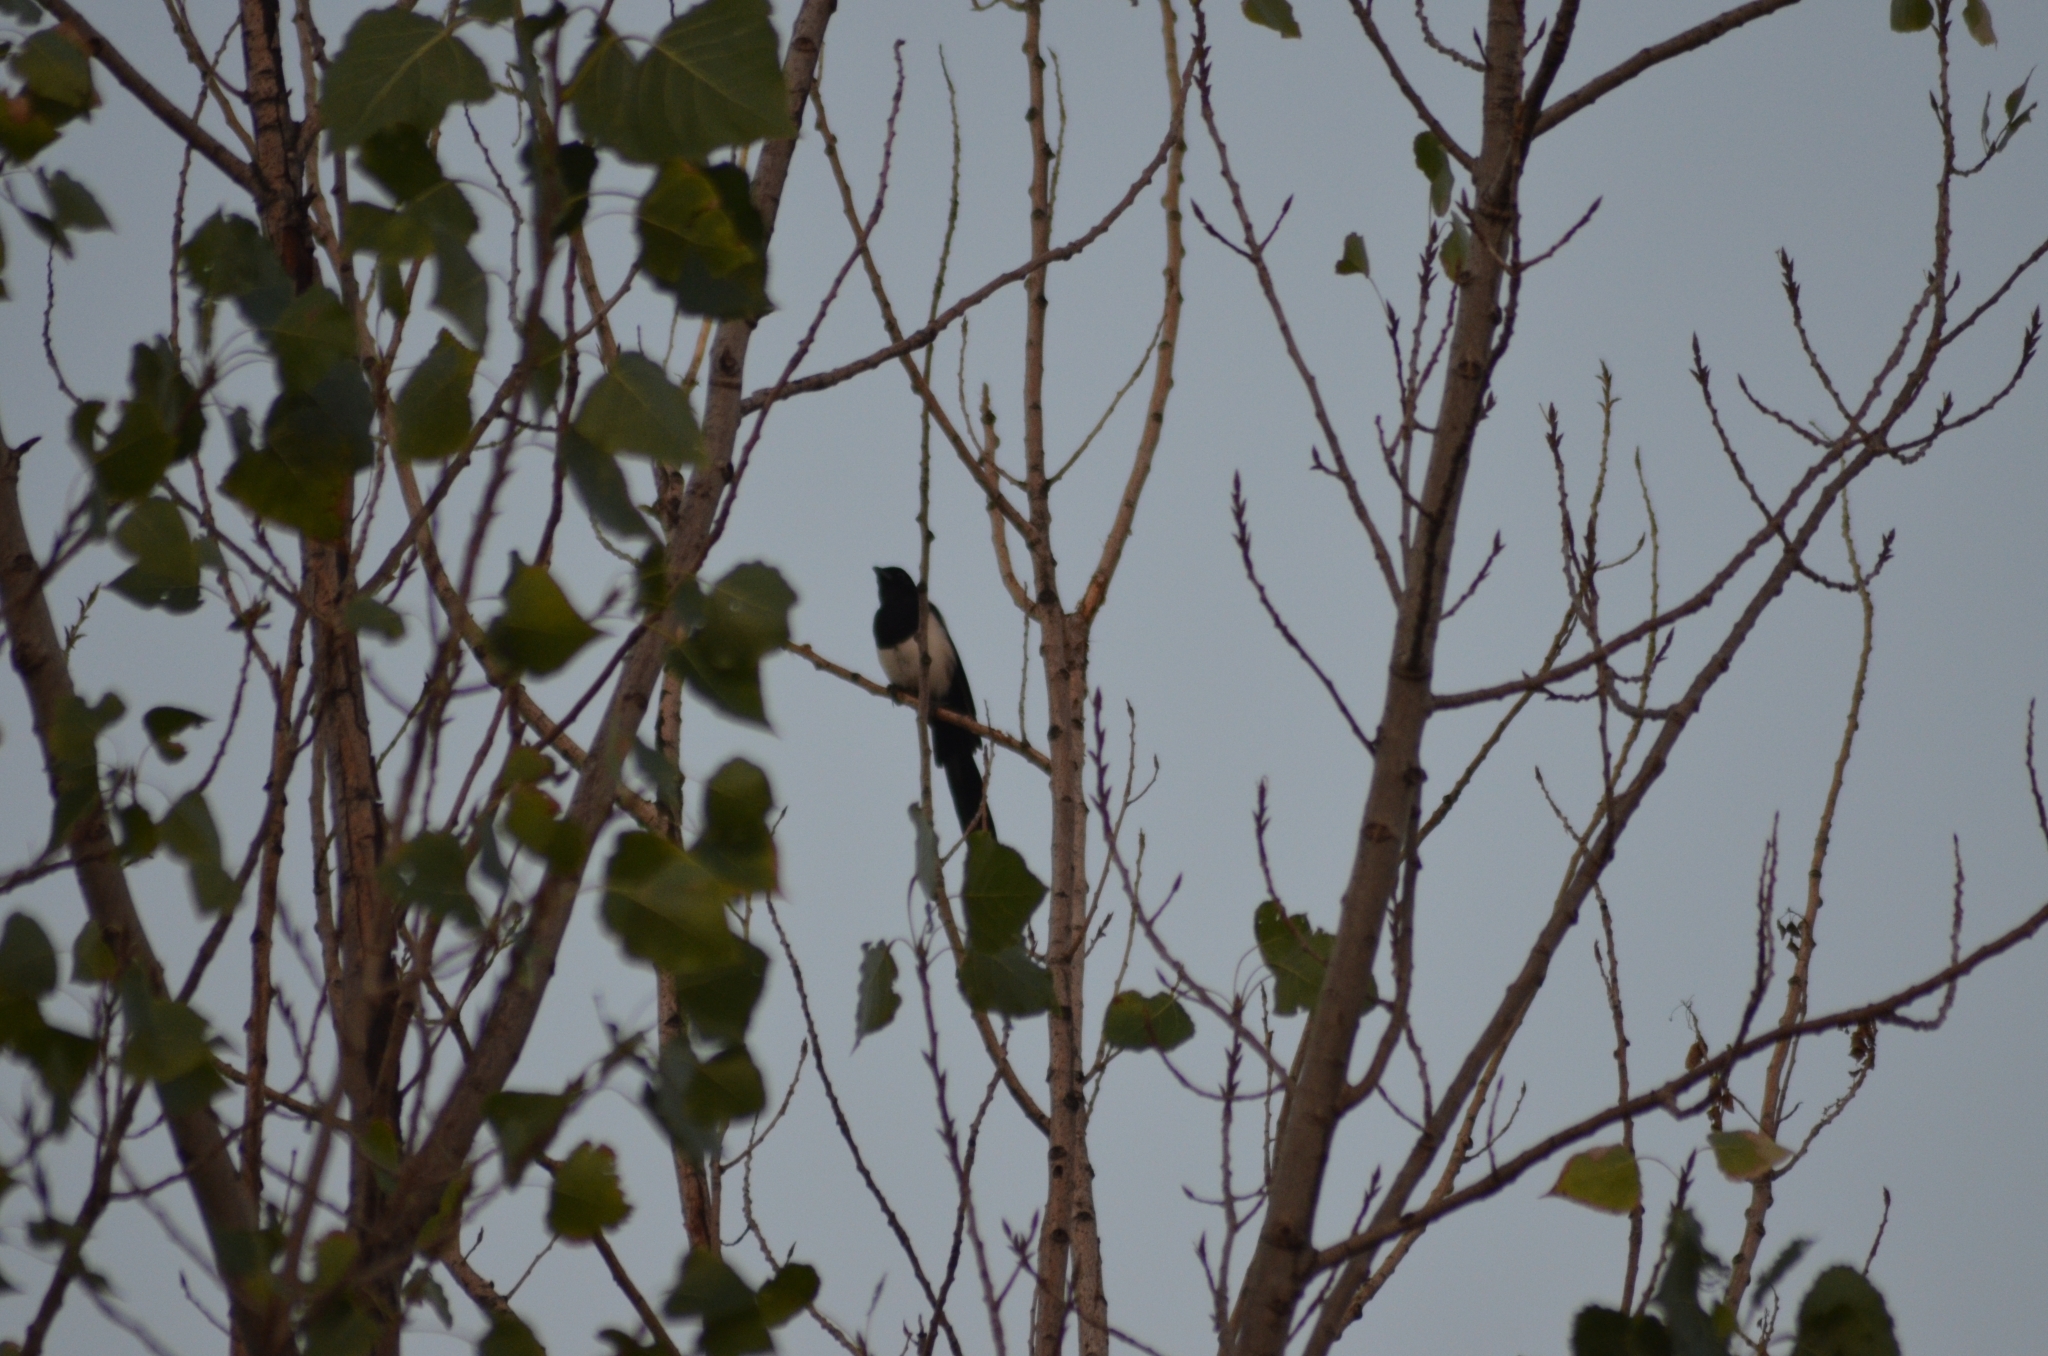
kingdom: Animalia
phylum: Chordata
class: Aves
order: Passeriformes
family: Corvidae
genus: Pica
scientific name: Pica pica
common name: Eurasian magpie
